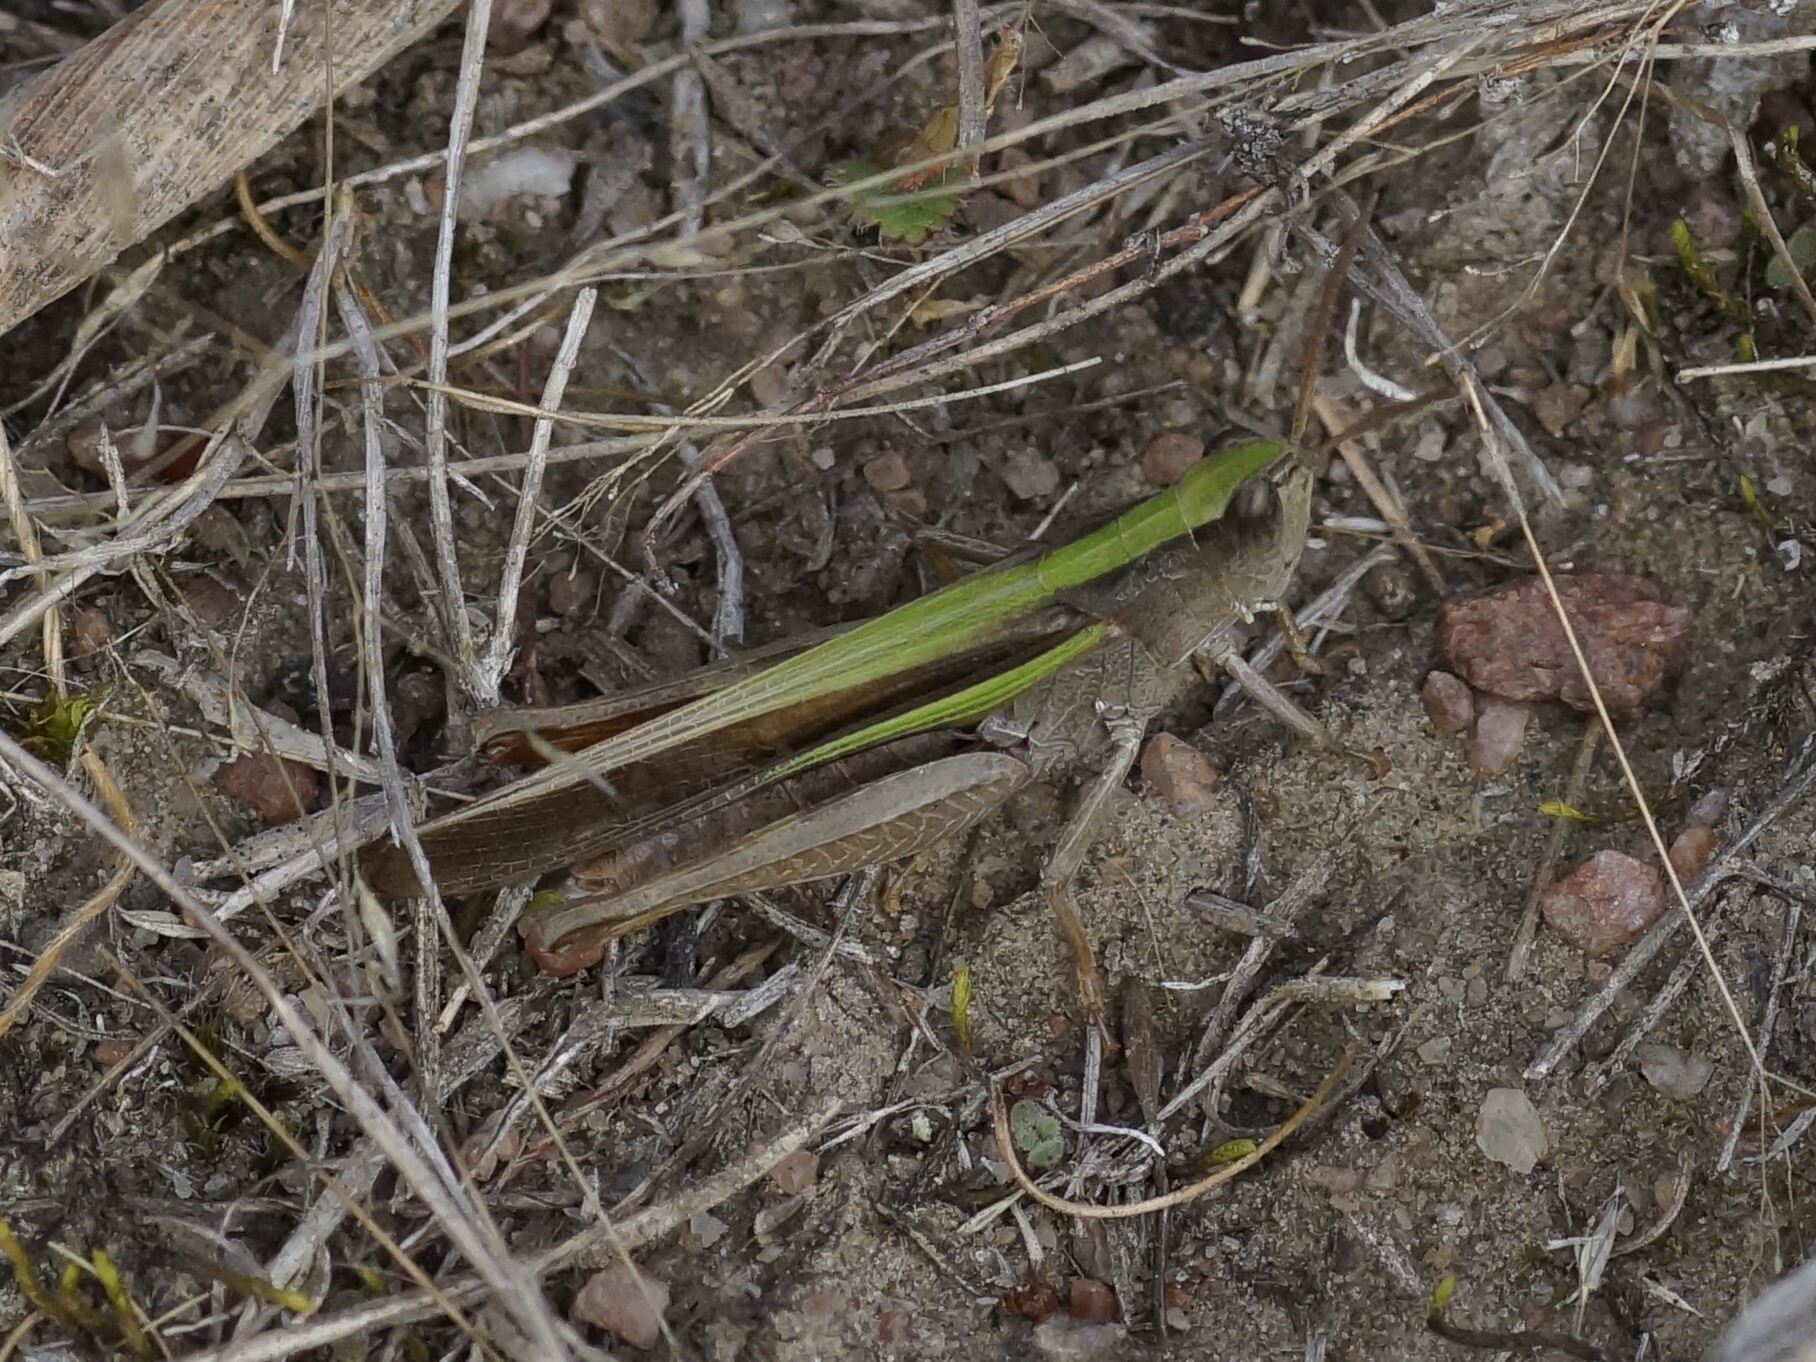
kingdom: Animalia
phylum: Arthropoda
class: Insecta
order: Orthoptera
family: Acrididae
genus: Schizobothrus
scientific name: Schizobothrus flavovittatus
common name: Disappearing grasshopper
